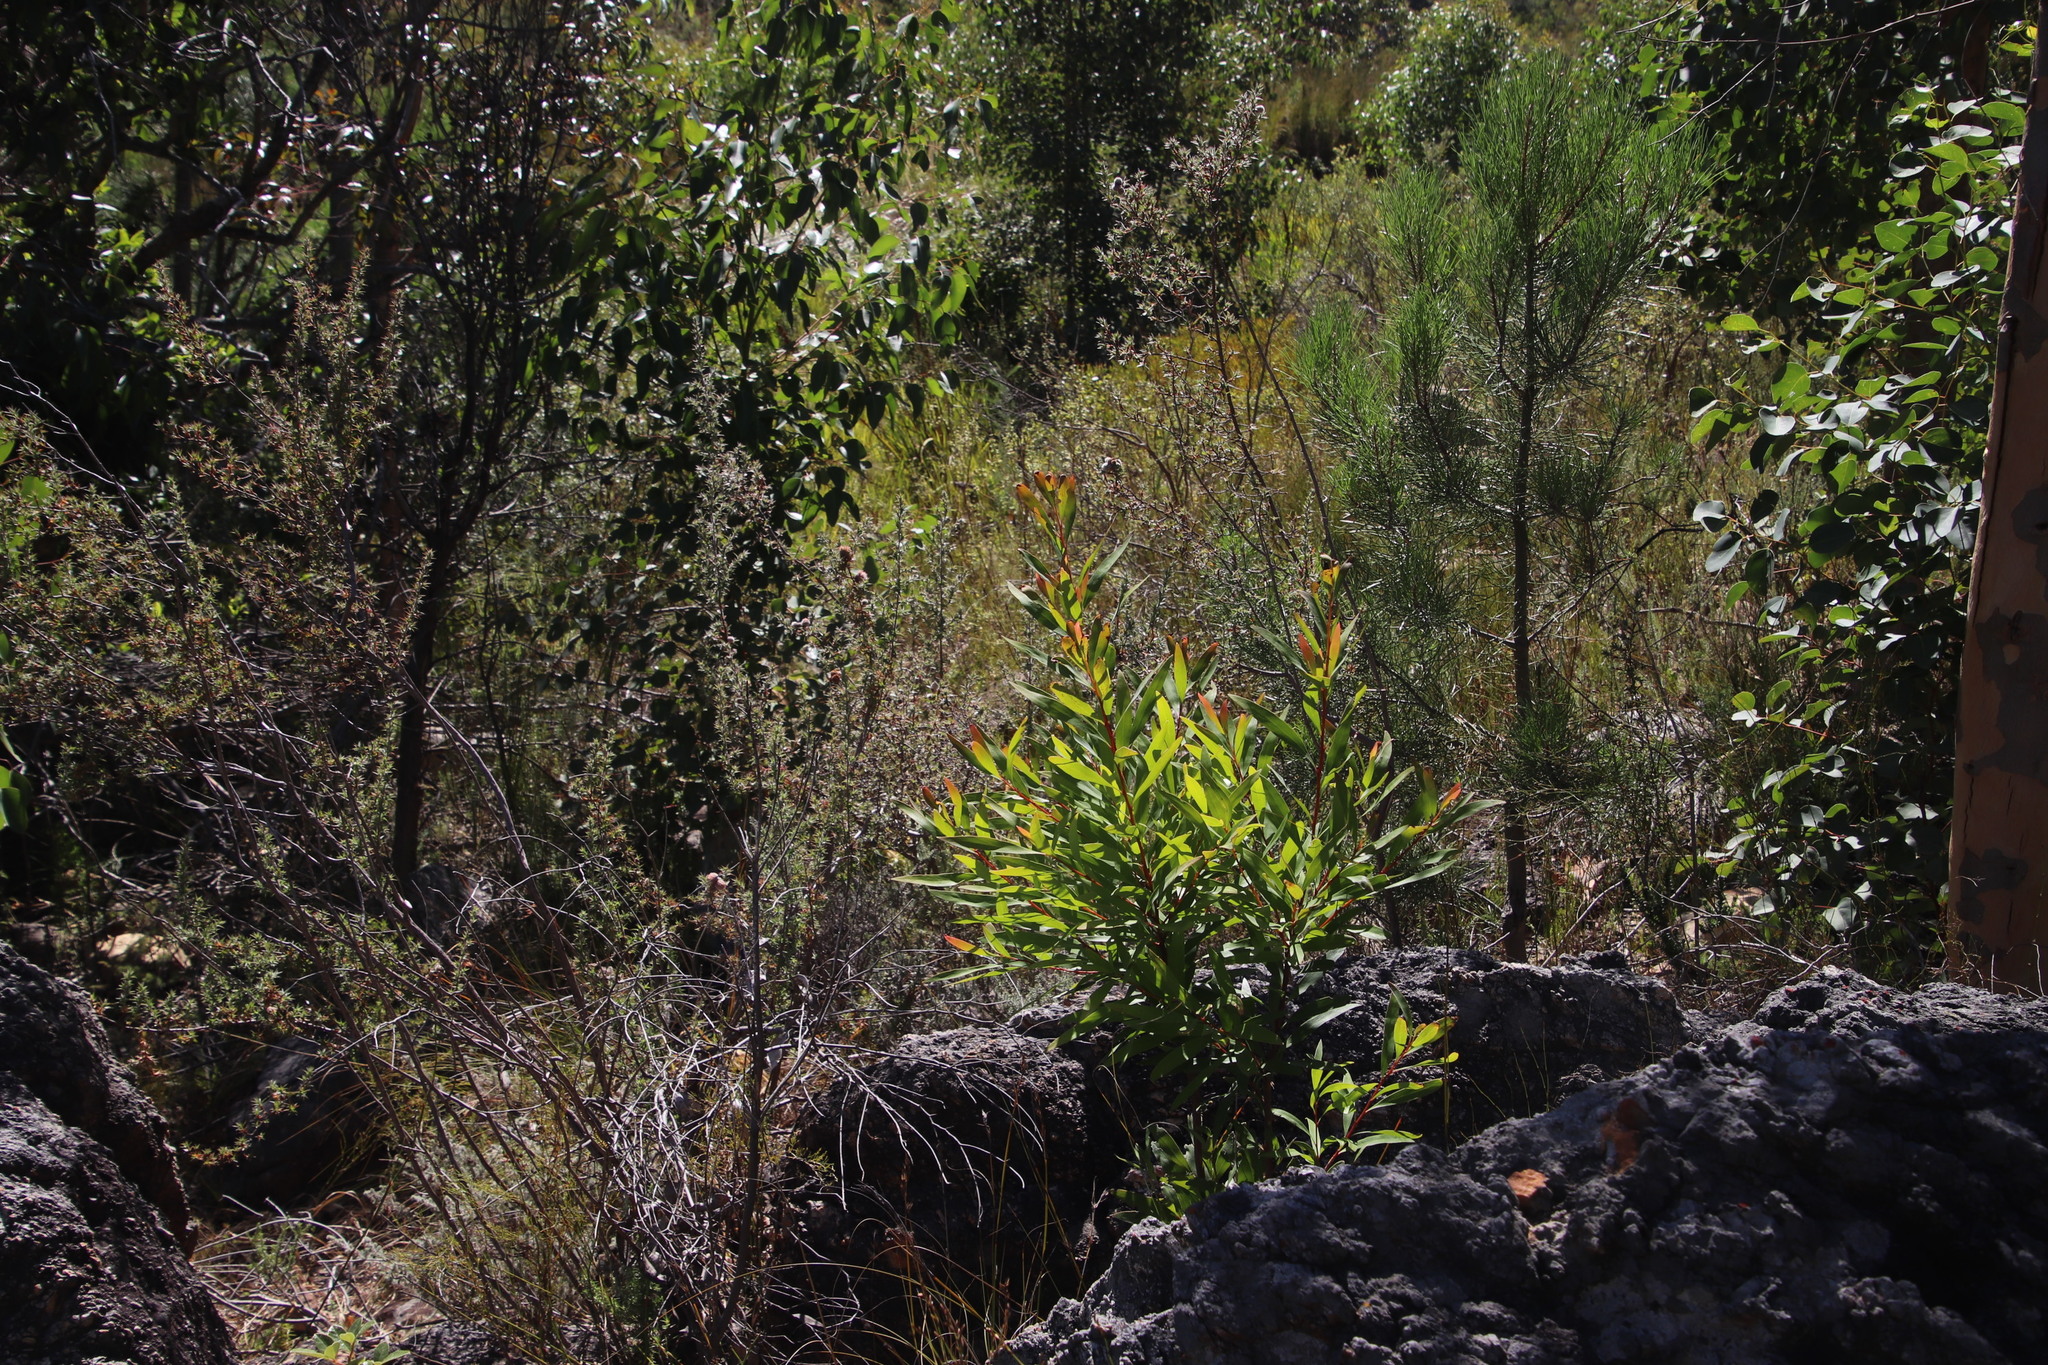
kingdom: Plantae
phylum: Tracheophyta
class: Magnoliopsida
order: Proteales
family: Proteaceae
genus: Hakea
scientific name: Hakea salicifolia
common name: Willow hakea
